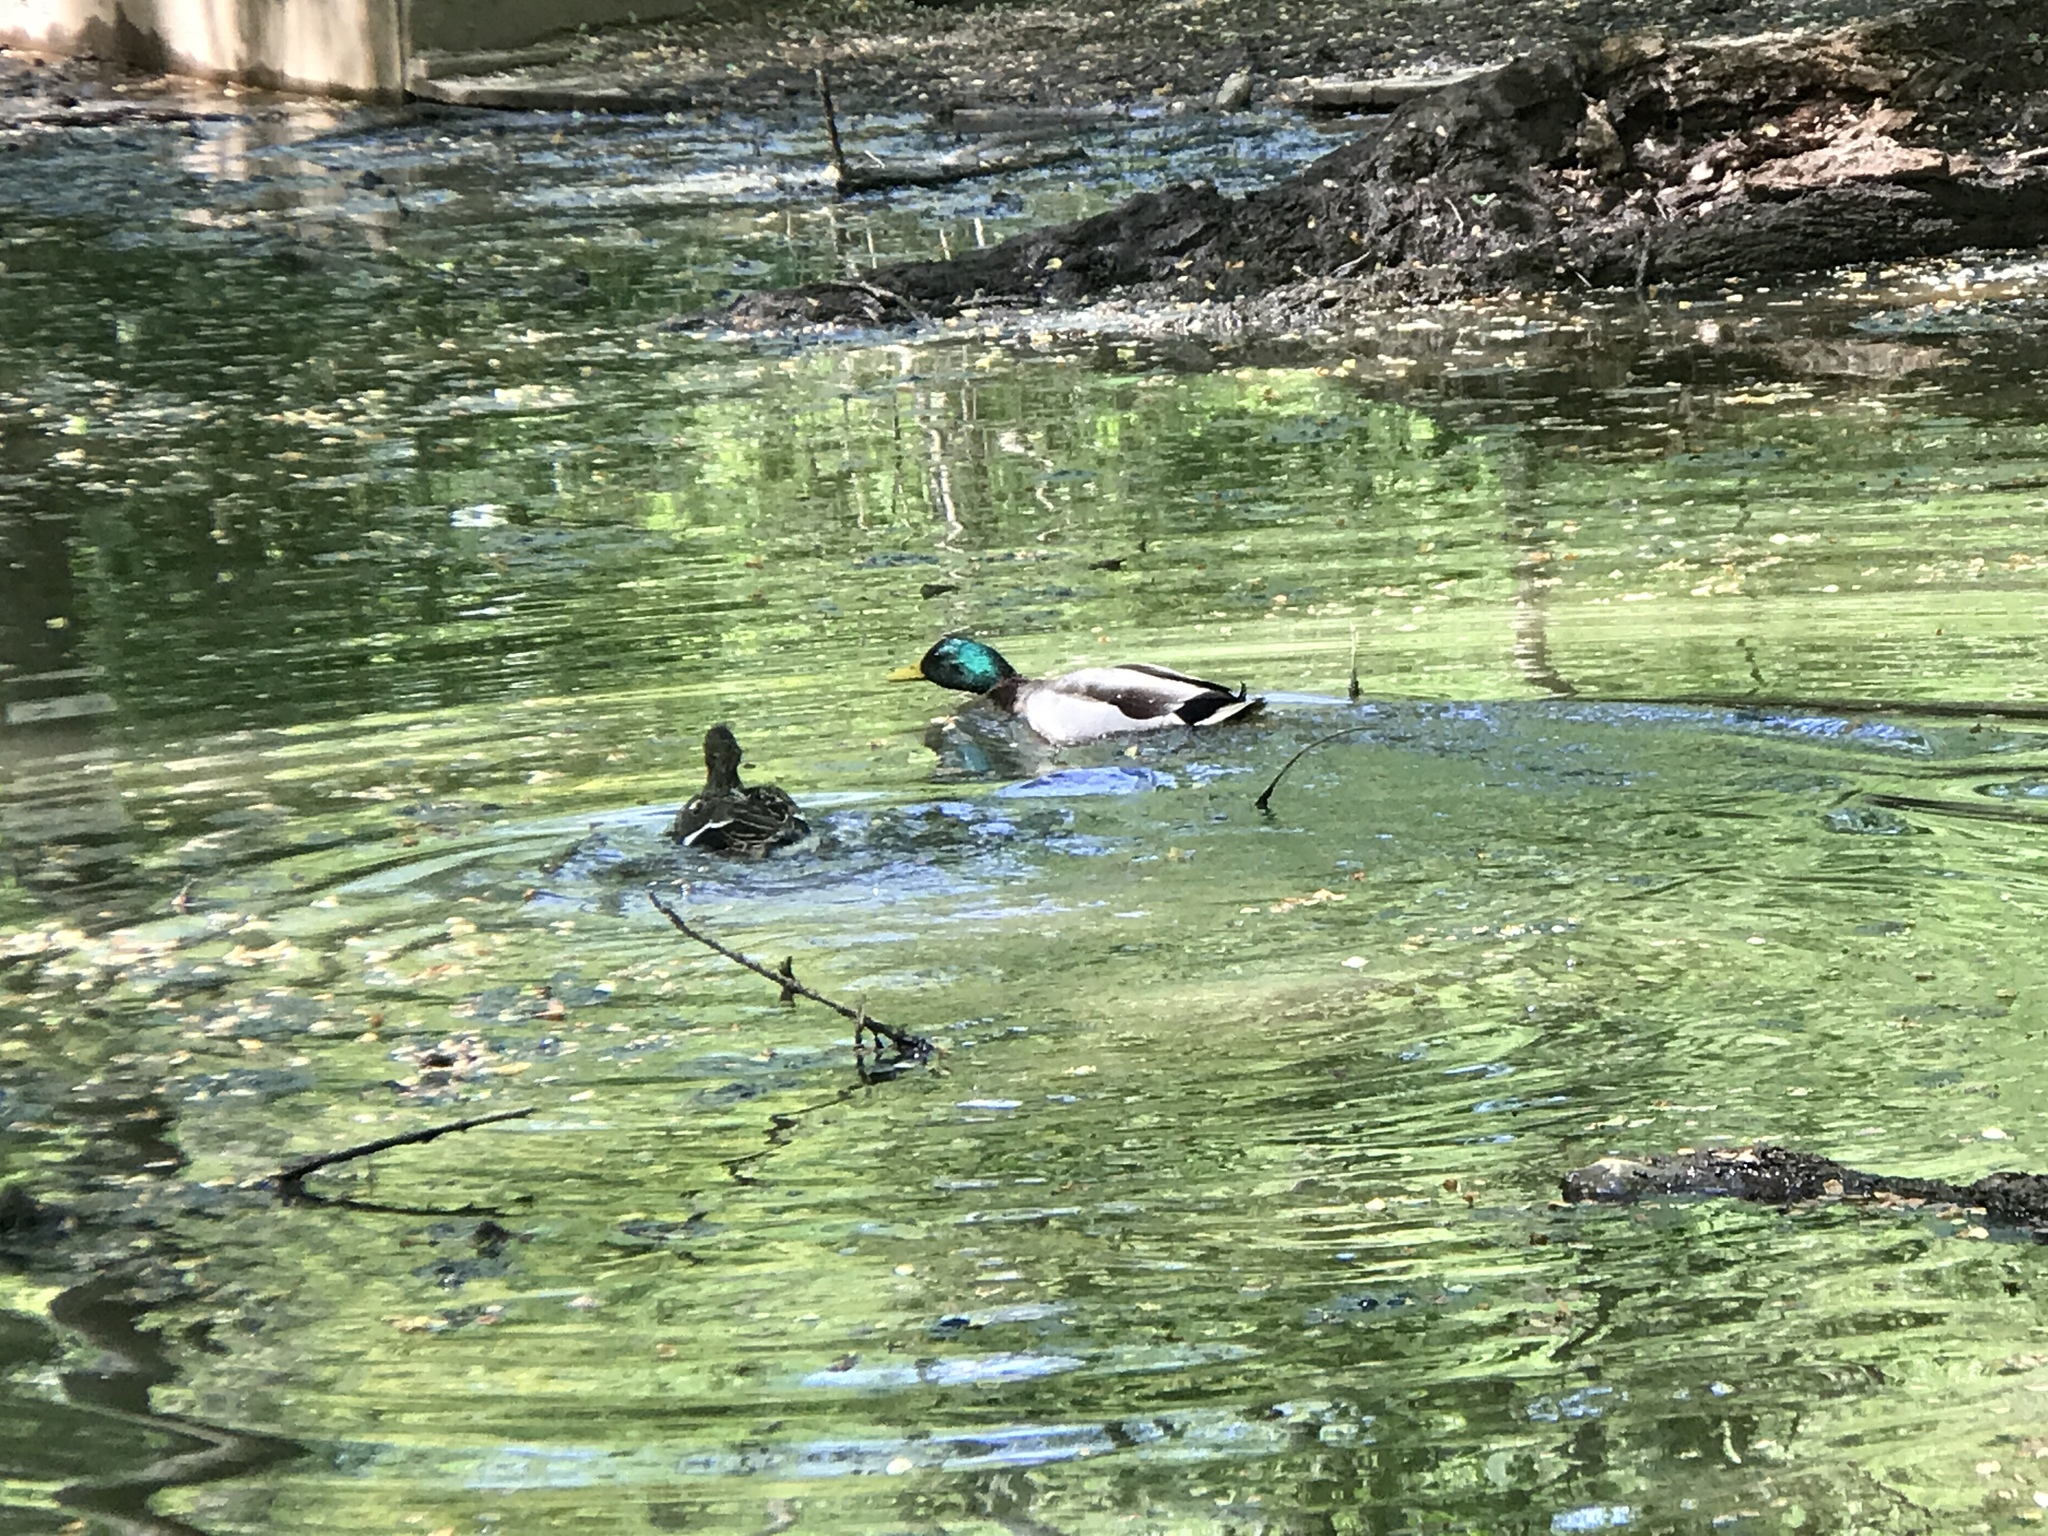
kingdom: Animalia
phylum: Chordata
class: Aves
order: Anseriformes
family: Anatidae
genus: Anas
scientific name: Anas platyrhynchos
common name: Mallard
